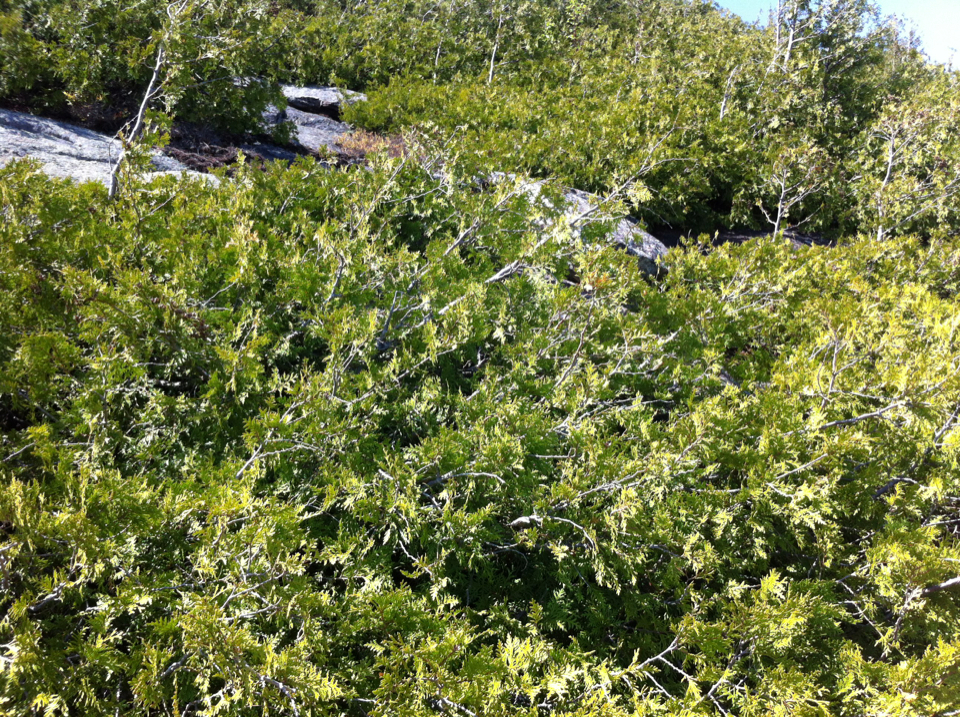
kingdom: Plantae
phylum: Tracheophyta
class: Pinopsida
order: Pinales
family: Cupressaceae
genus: Thuja
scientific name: Thuja occidentalis
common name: Northern white-cedar
